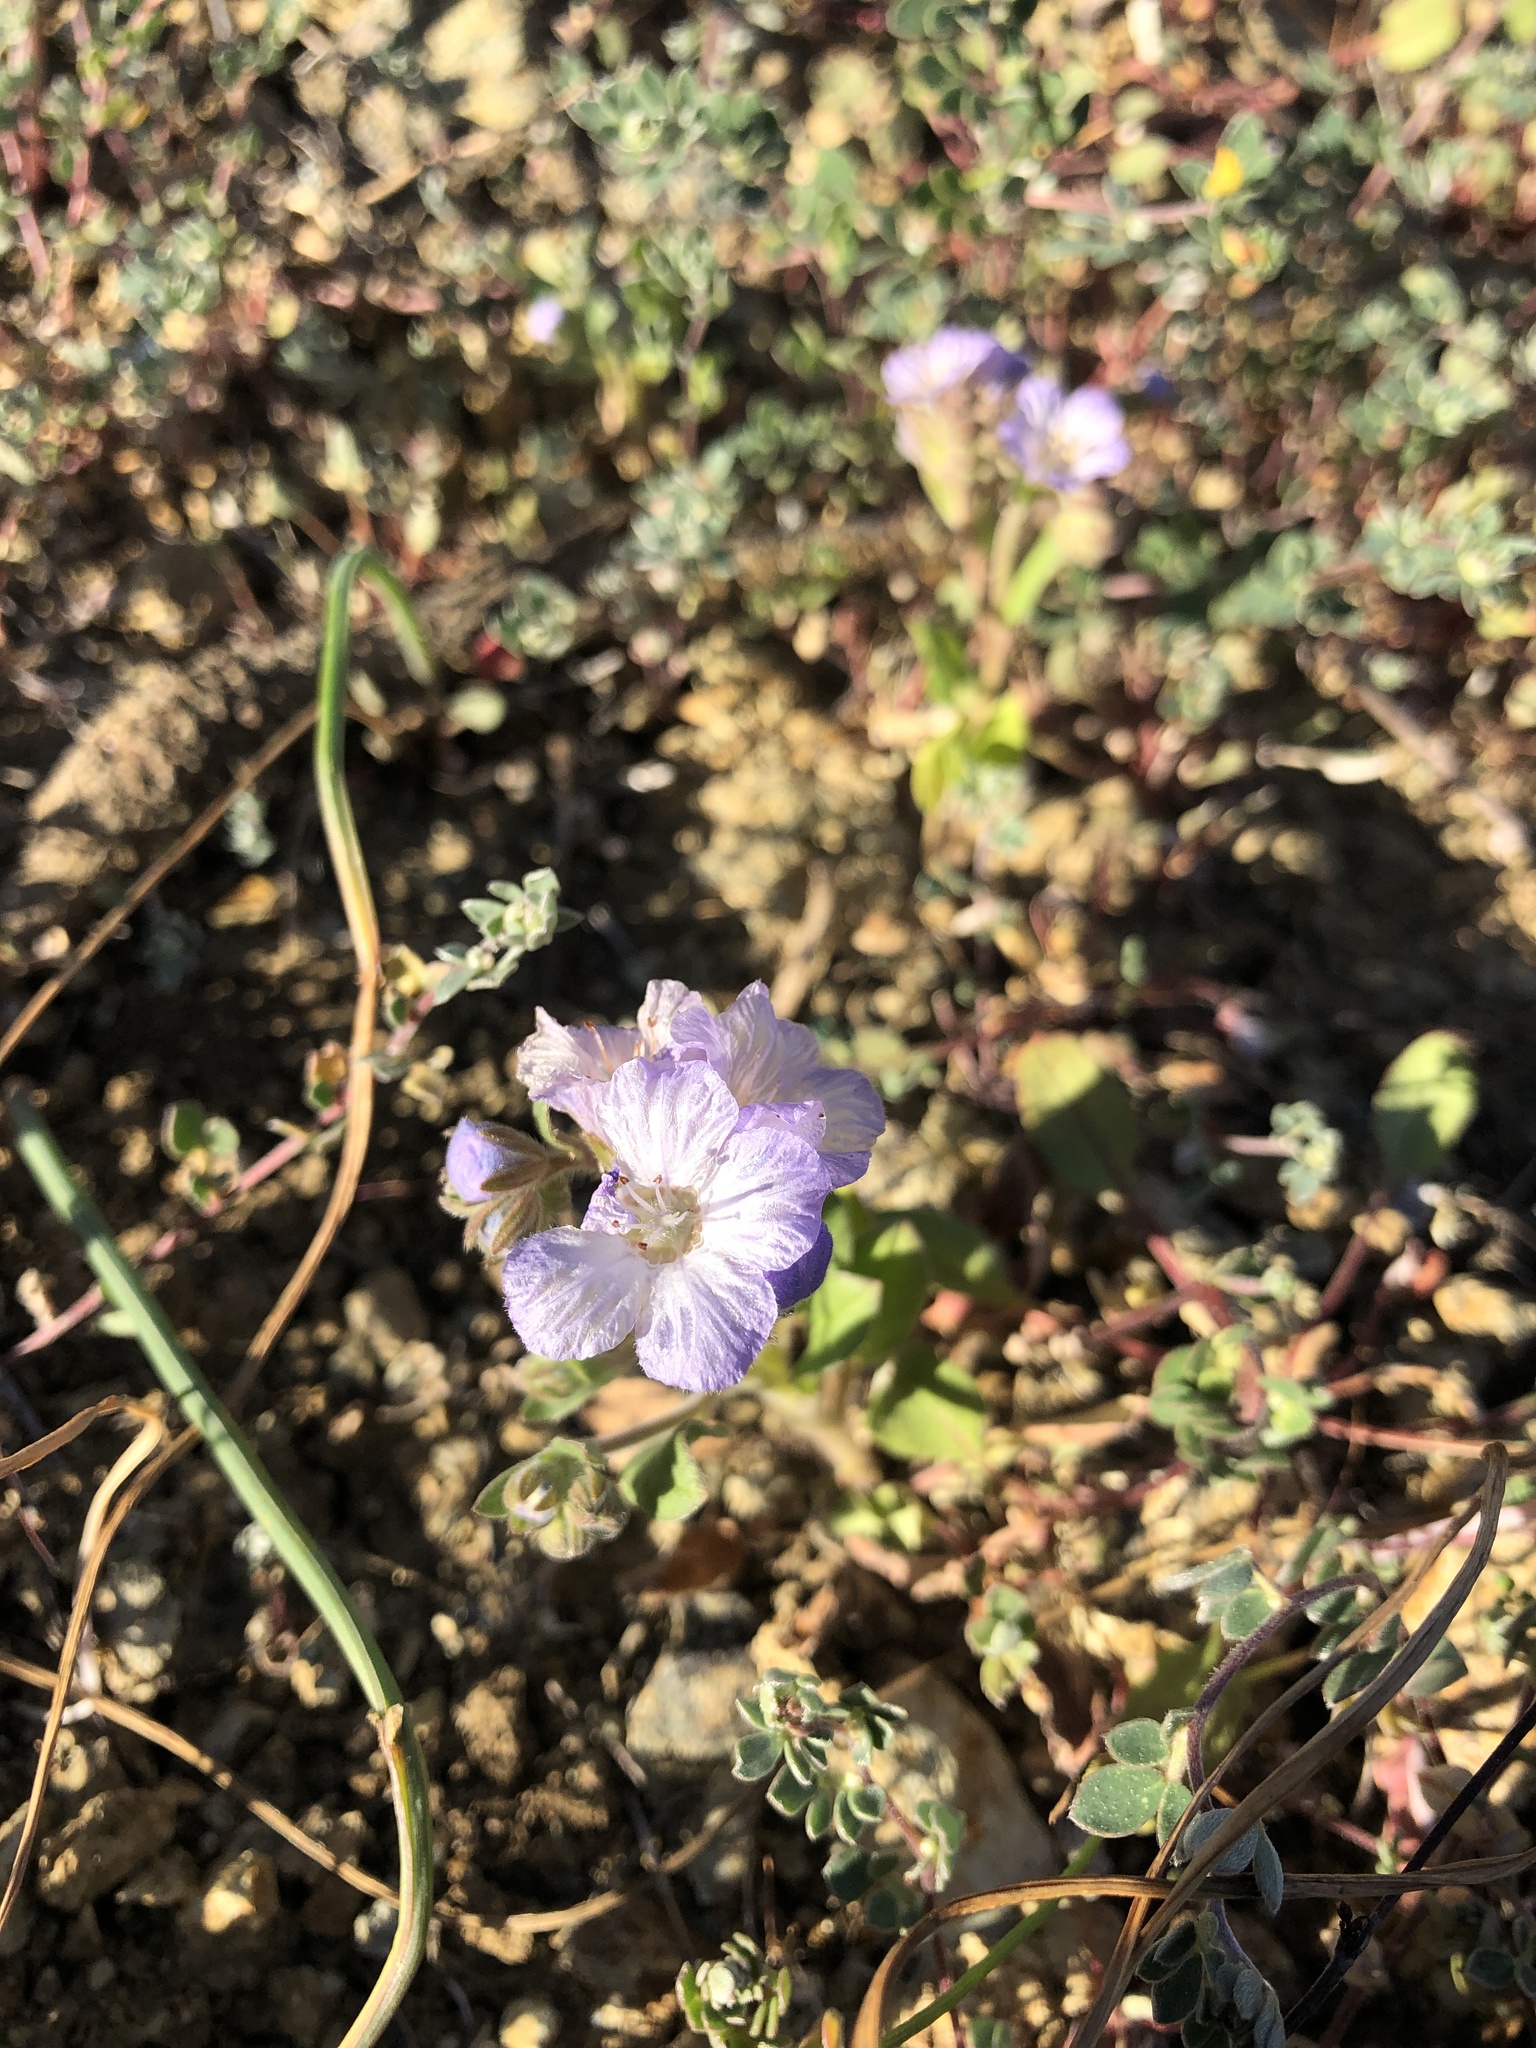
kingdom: Plantae
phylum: Tracheophyta
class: Magnoliopsida
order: Boraginales
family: Hydrophyllaceae
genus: Phacelia
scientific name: Phacelia divaricata
